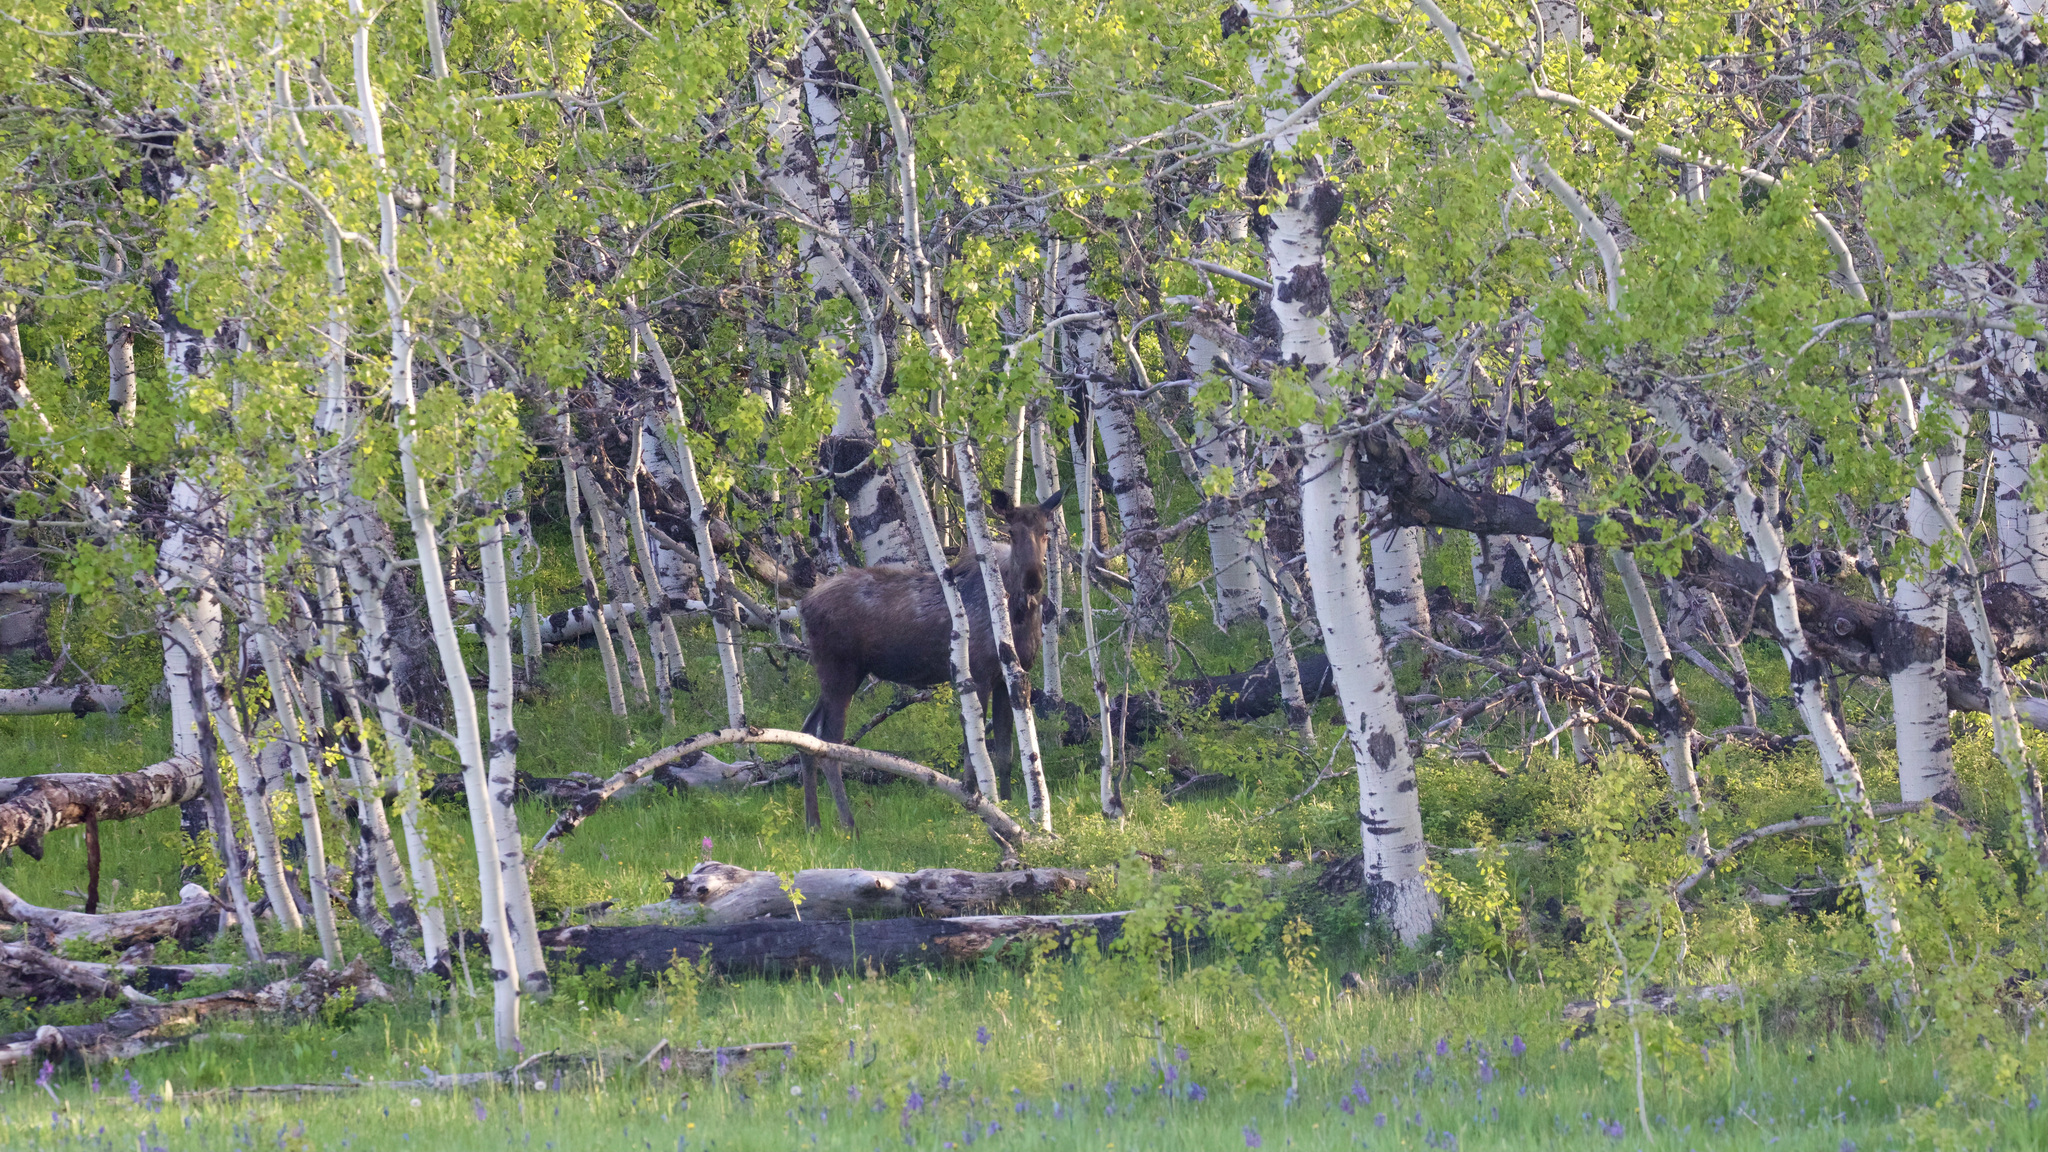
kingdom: Animalia
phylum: Chordata
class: Mammalia
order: Artiodactyla
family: Cervidae
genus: Alces
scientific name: Alces alces
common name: Moose
